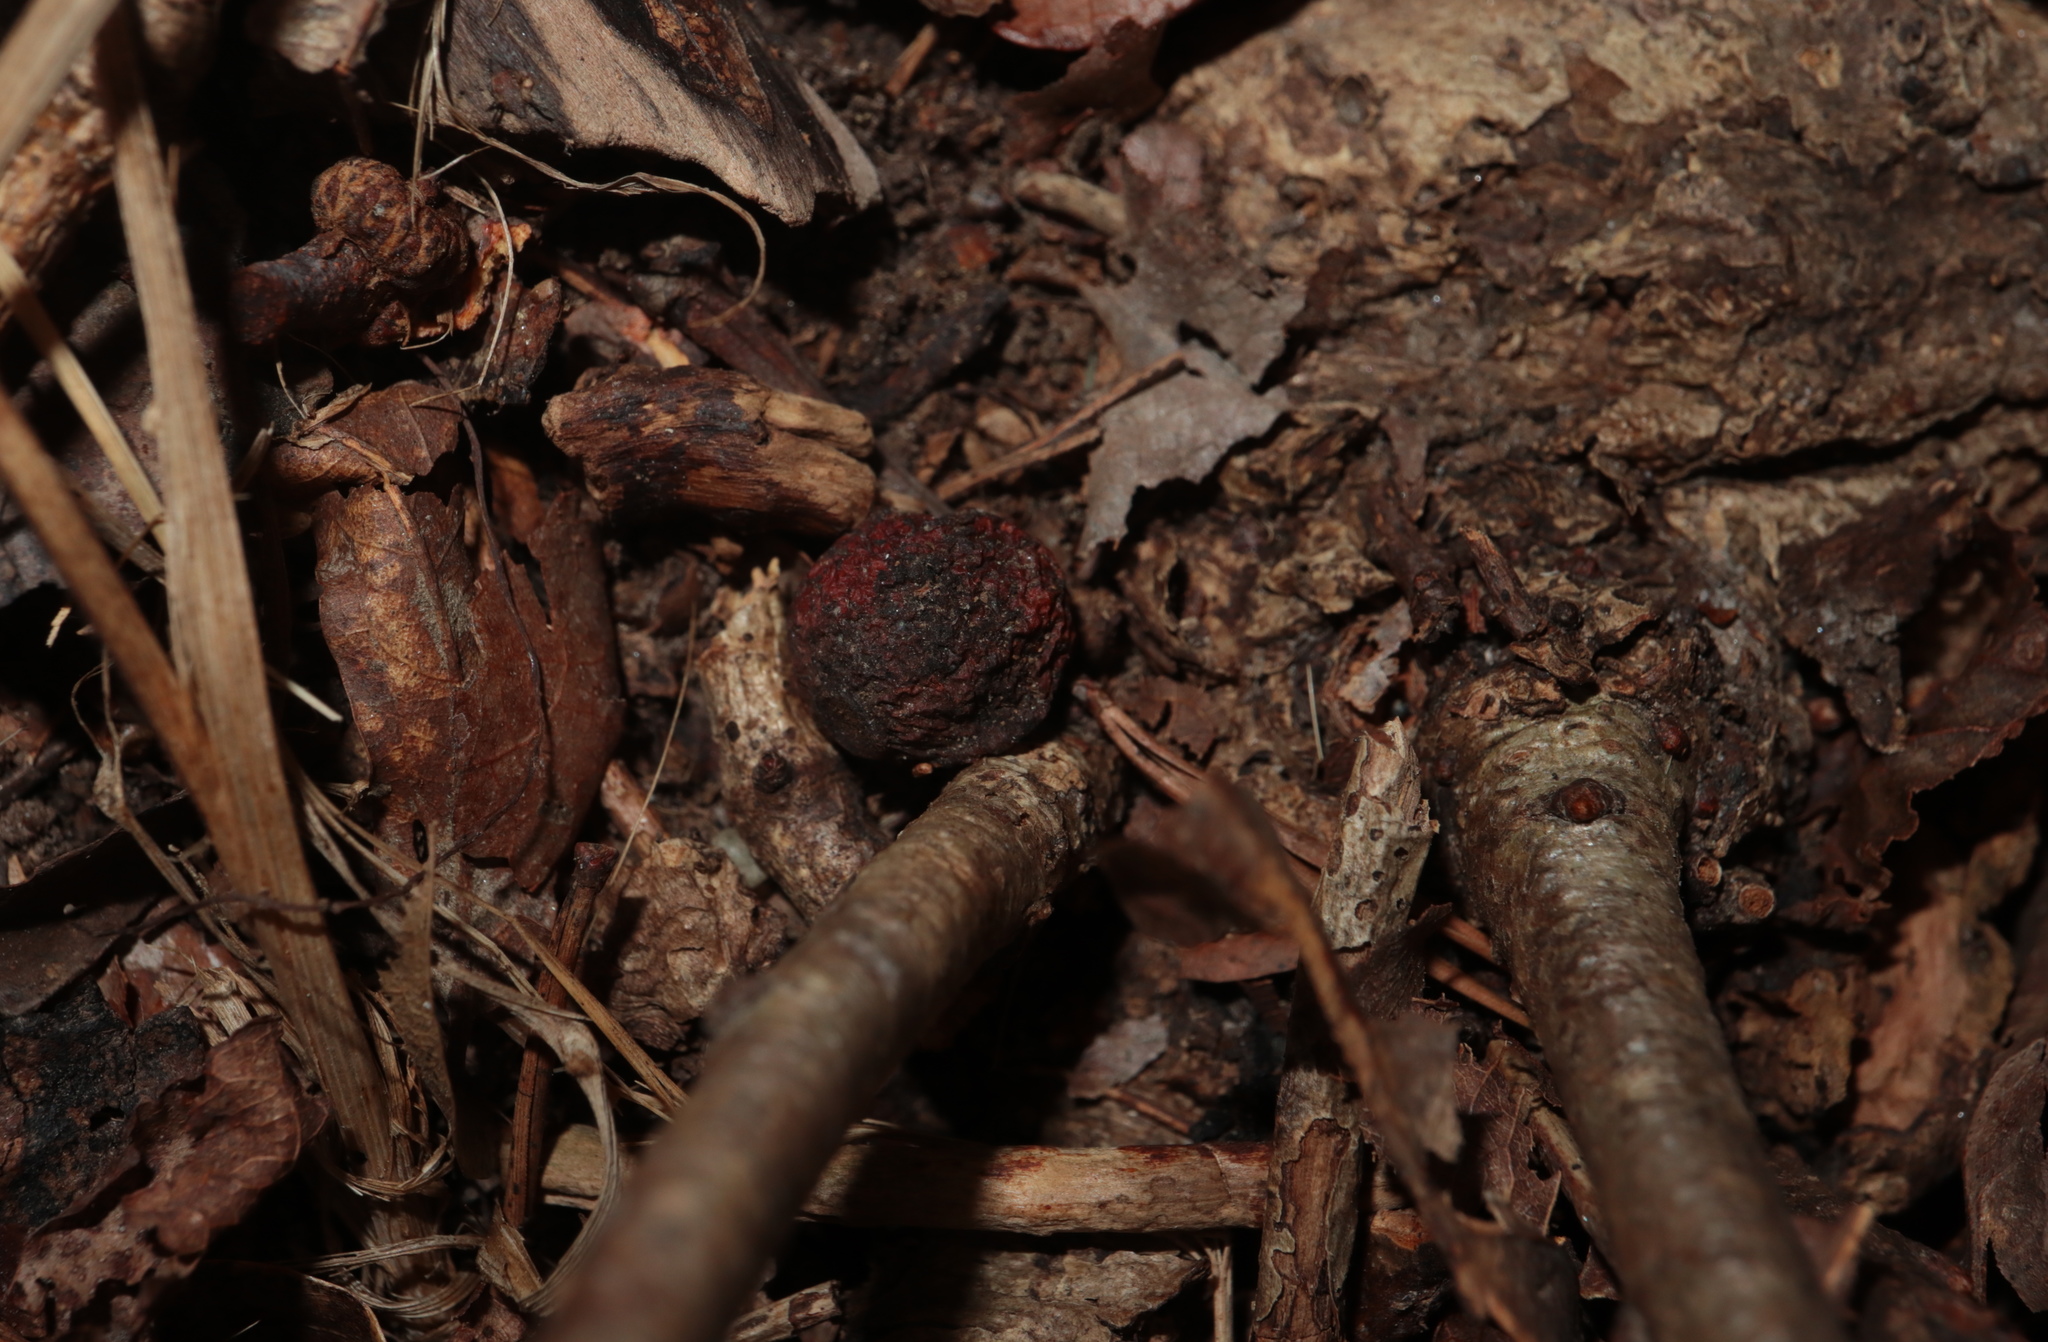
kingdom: Animalia
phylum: Arthropoda
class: Insecta
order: Hymenoptera
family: Cynipidae
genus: Disholcaspis
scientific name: Disholcaspis
